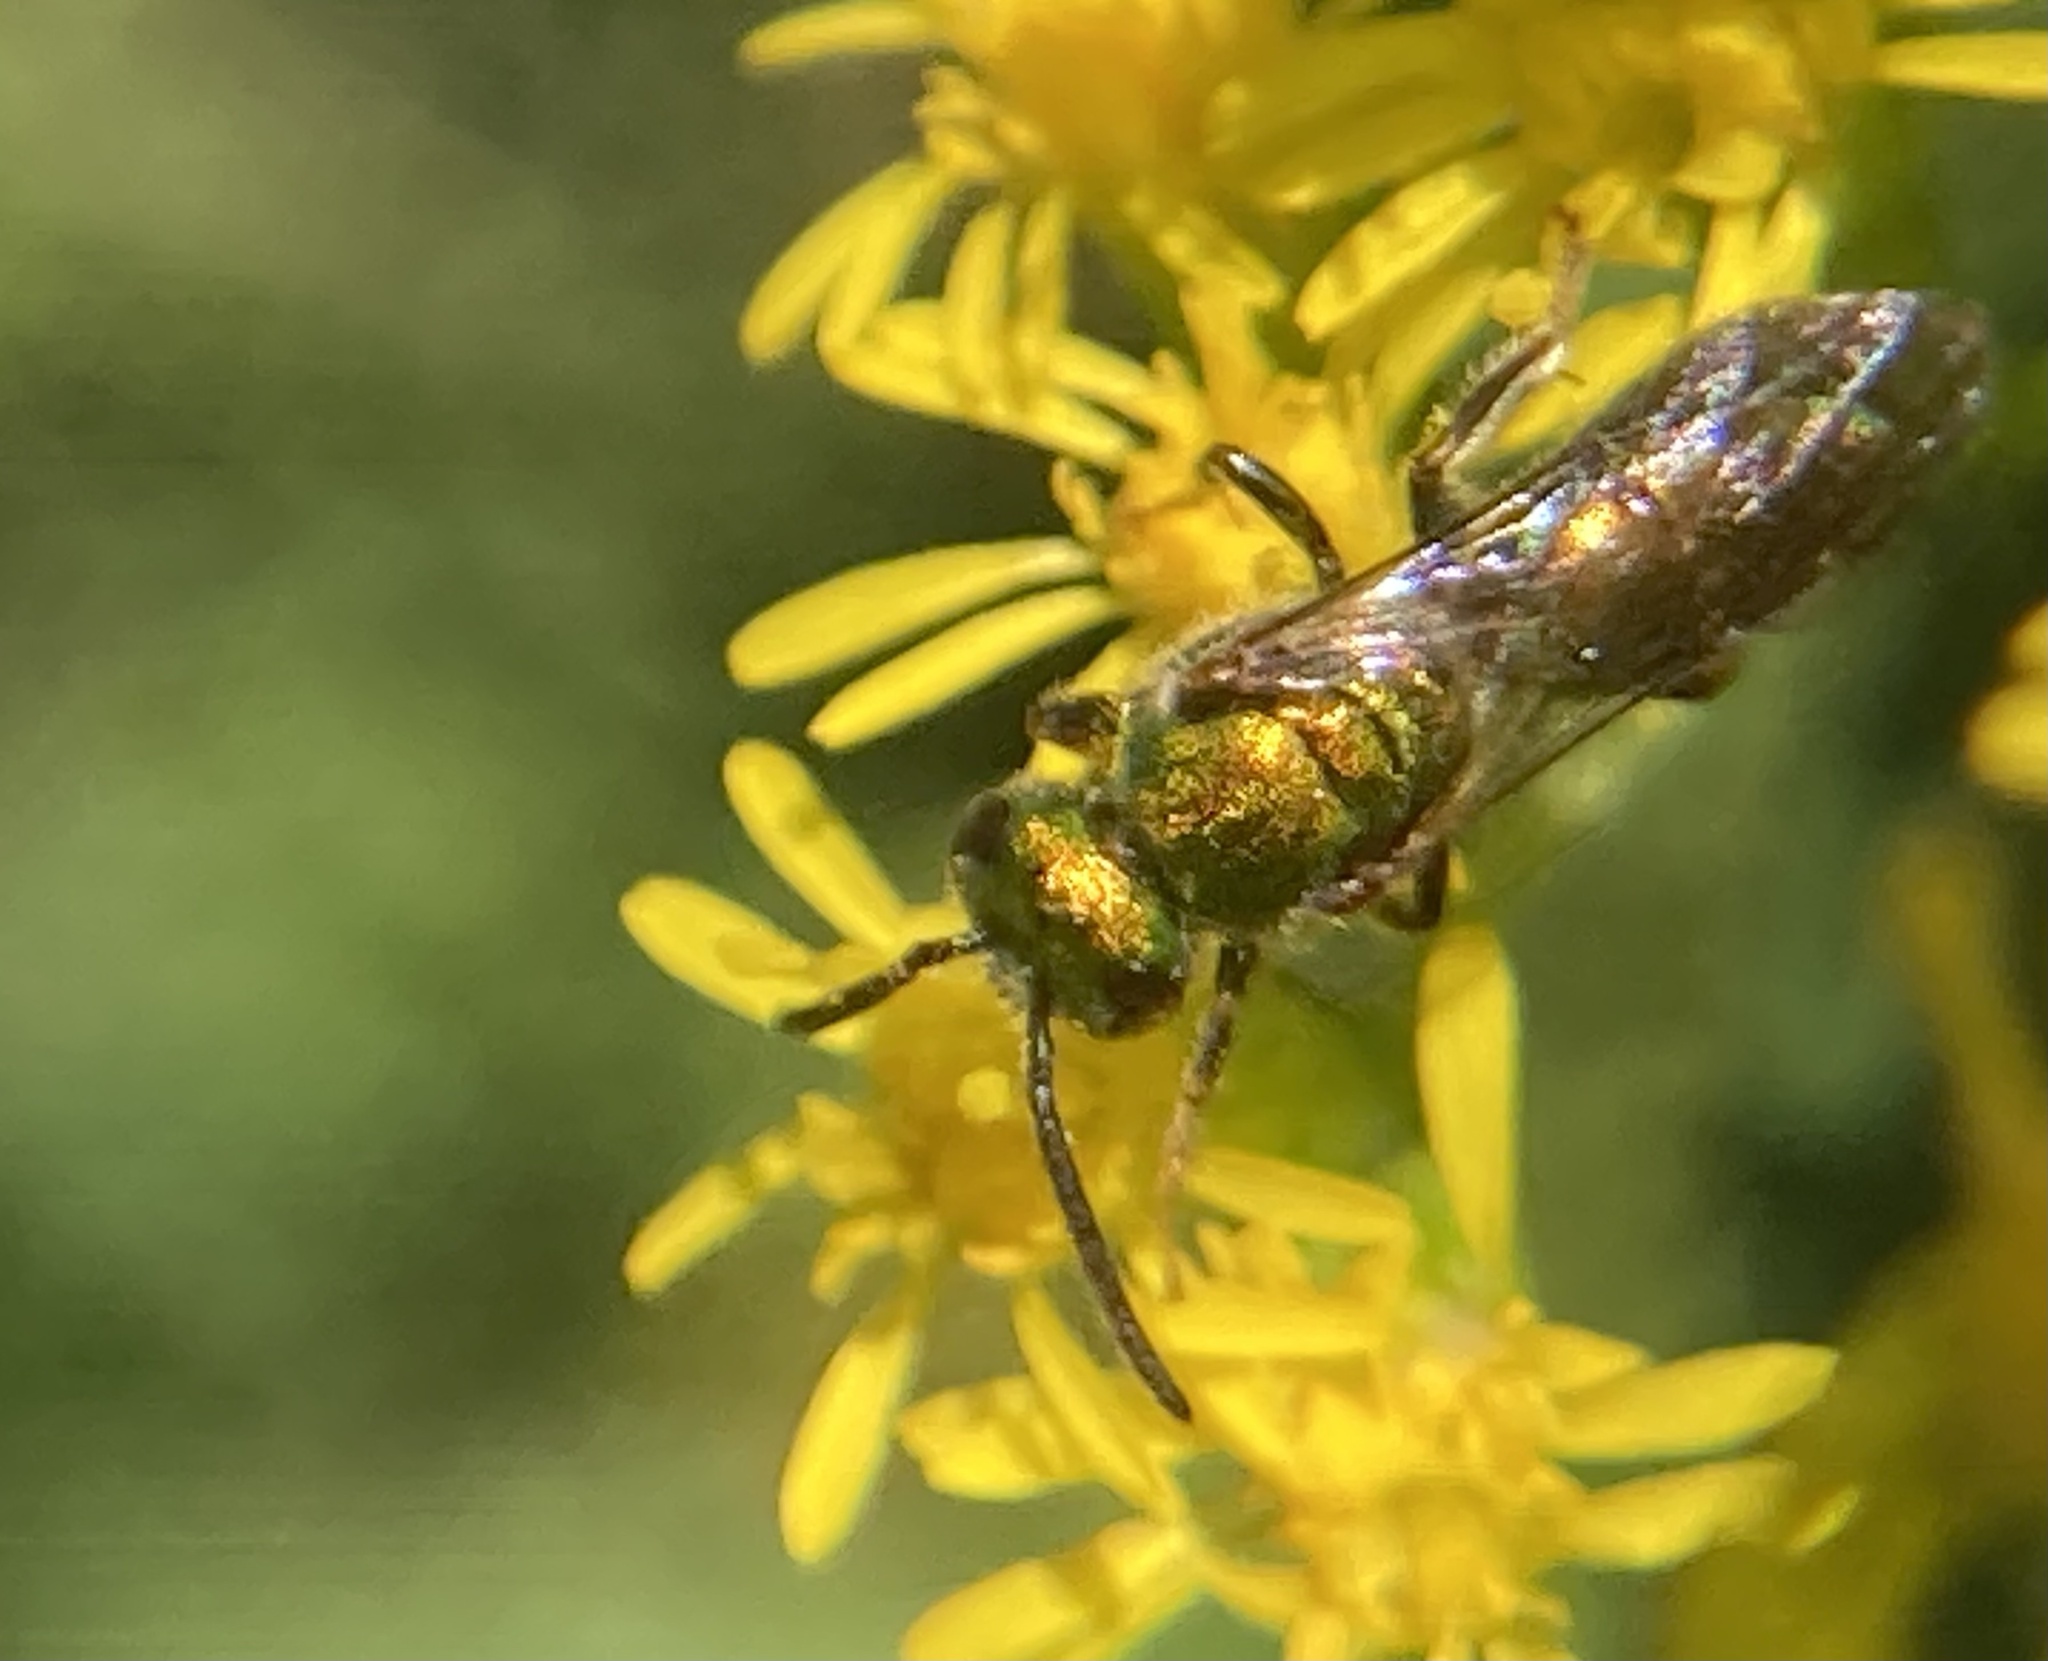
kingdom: Animalia
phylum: Arthropoda
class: Insecta
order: Hymenoptera
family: Halictidae
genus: Augochlora
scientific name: Augochlora pura
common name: Pure green sweat bee
